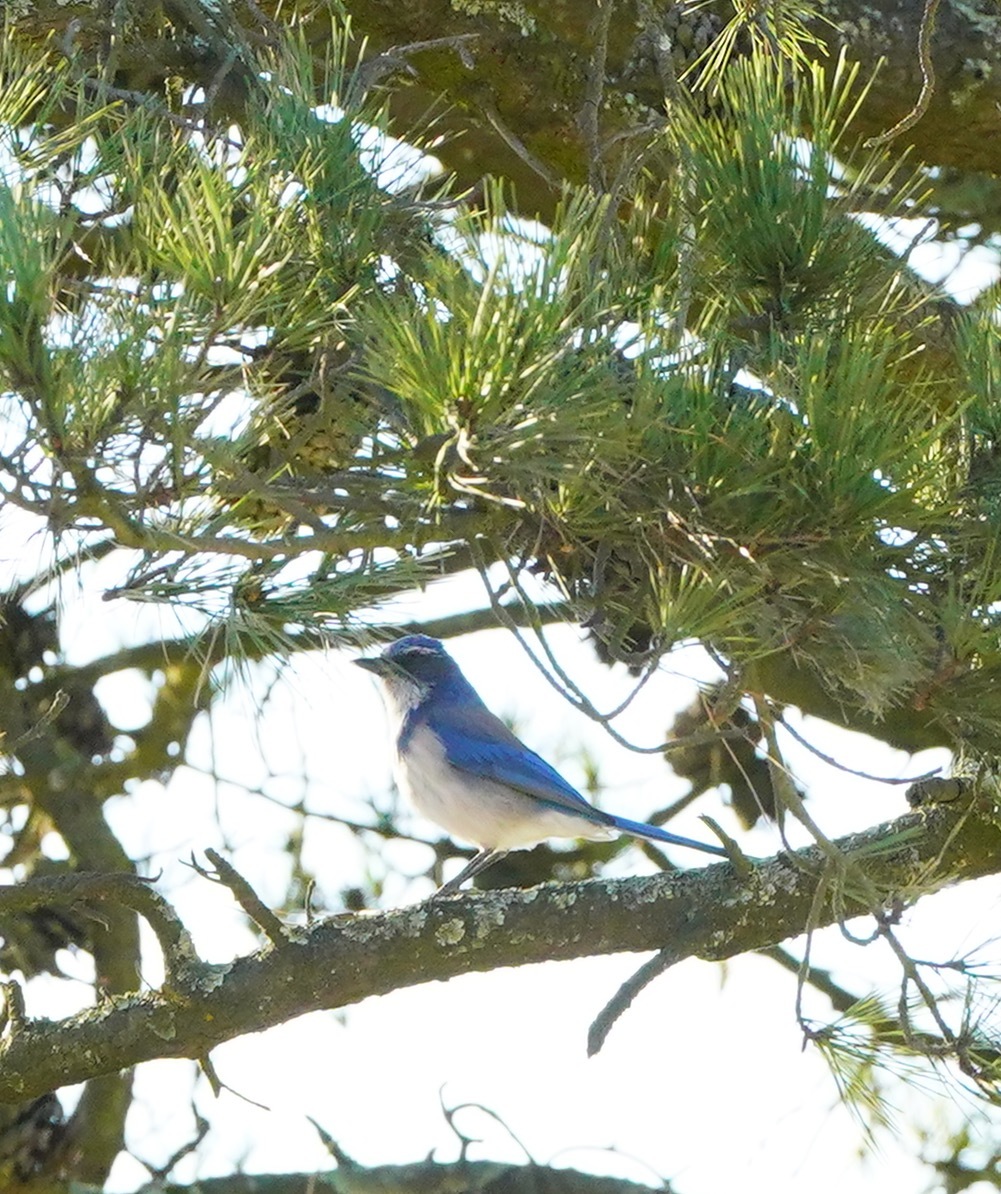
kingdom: Animalia
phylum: Chordata
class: Aves
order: Passeriformes
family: Corvidae
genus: Aphelocoma
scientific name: Aphelocoma californica
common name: California scrub-jay
